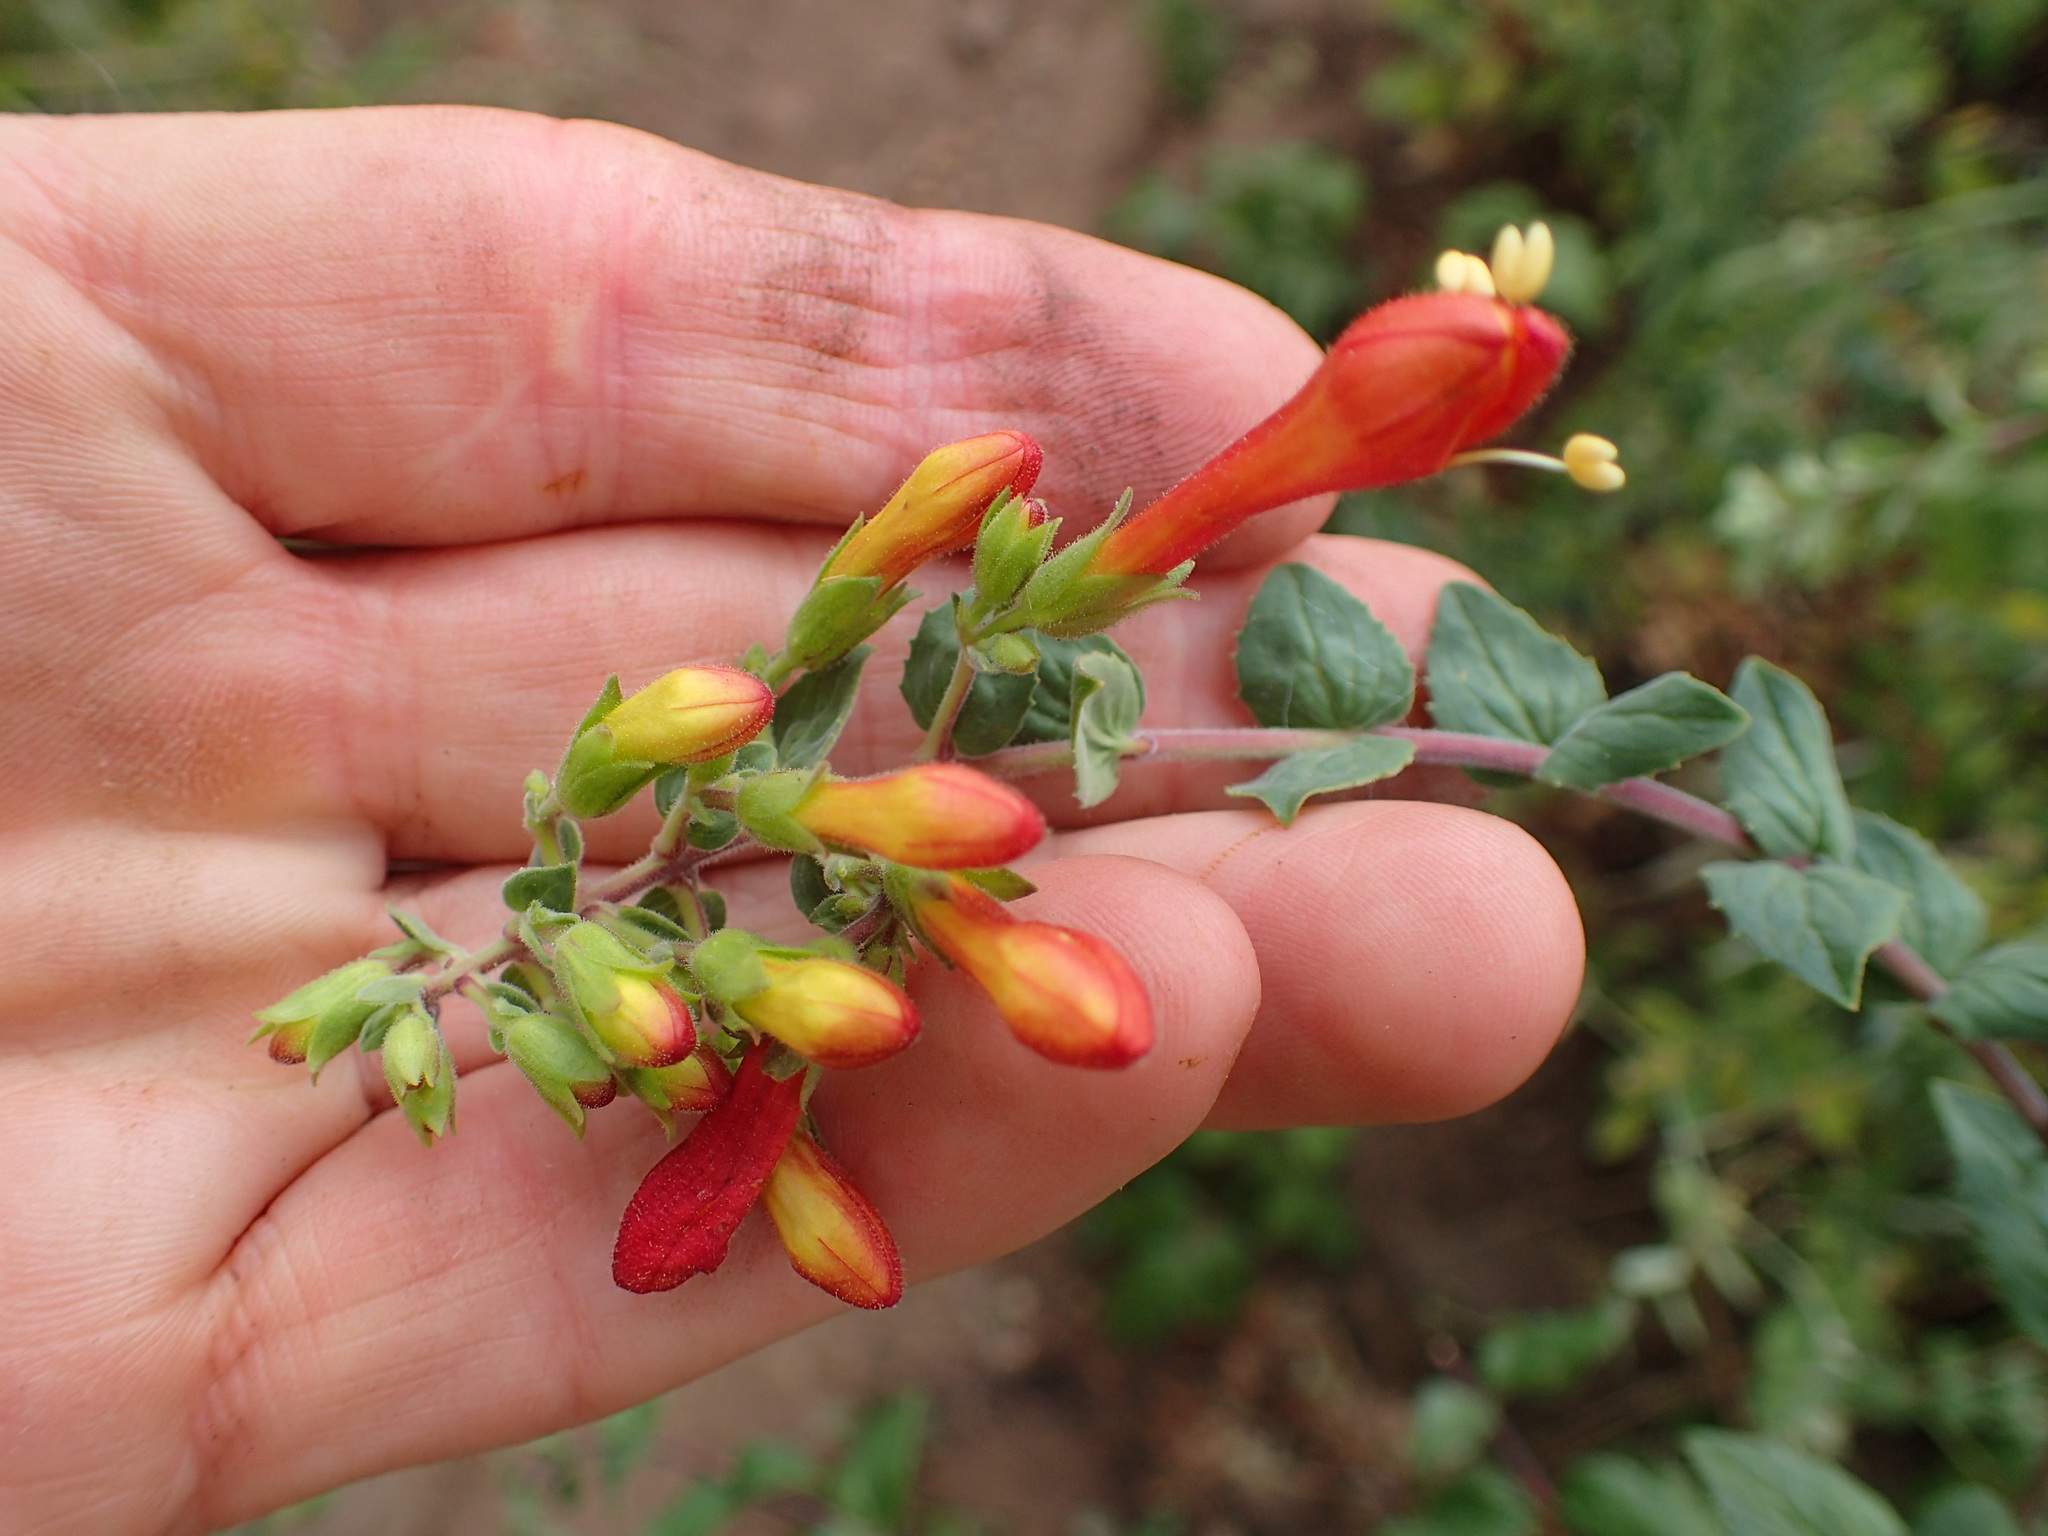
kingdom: Plantae
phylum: Tracheophyta
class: Magnoliopsida
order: Lamiales
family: Plantaginaceae
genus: Keckiella
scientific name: Keckiella cordifolia
